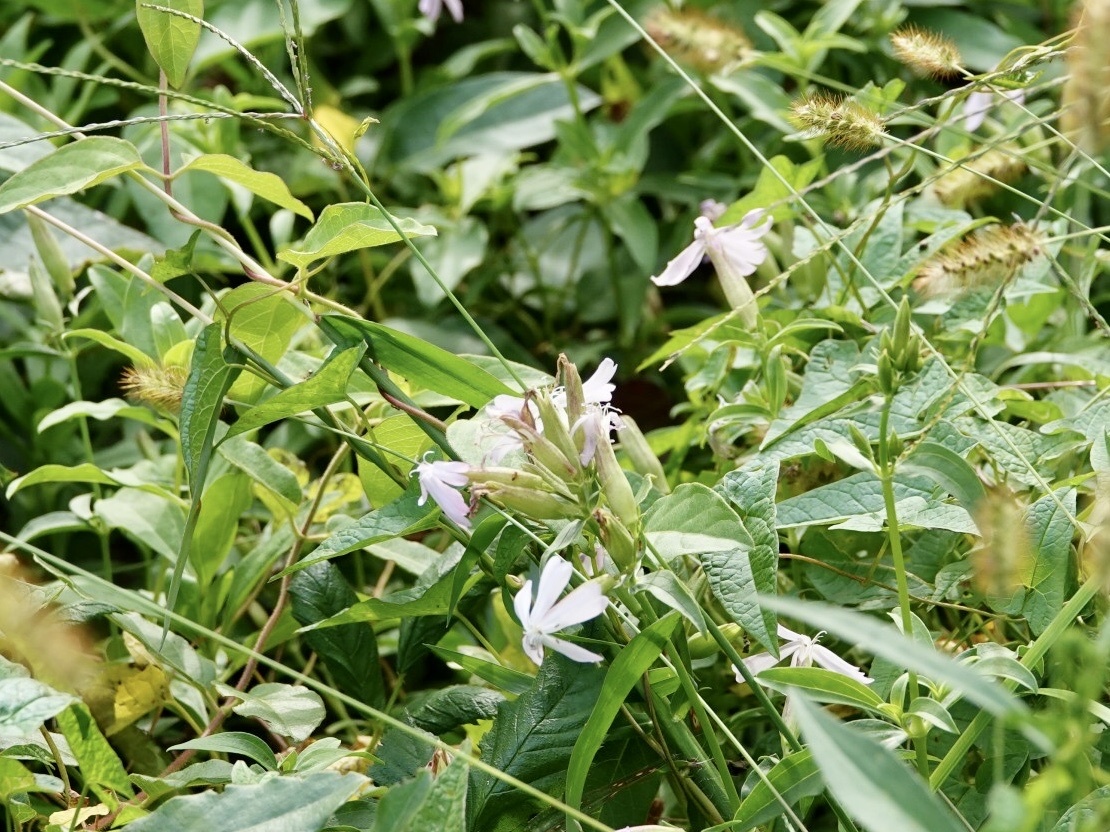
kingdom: Plantae
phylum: Tracheophyta
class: Magnoliopsida
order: Caryophyllales
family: Caryophyllaceae
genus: Saponaria
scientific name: Saponaria officinalis
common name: Soapwort
